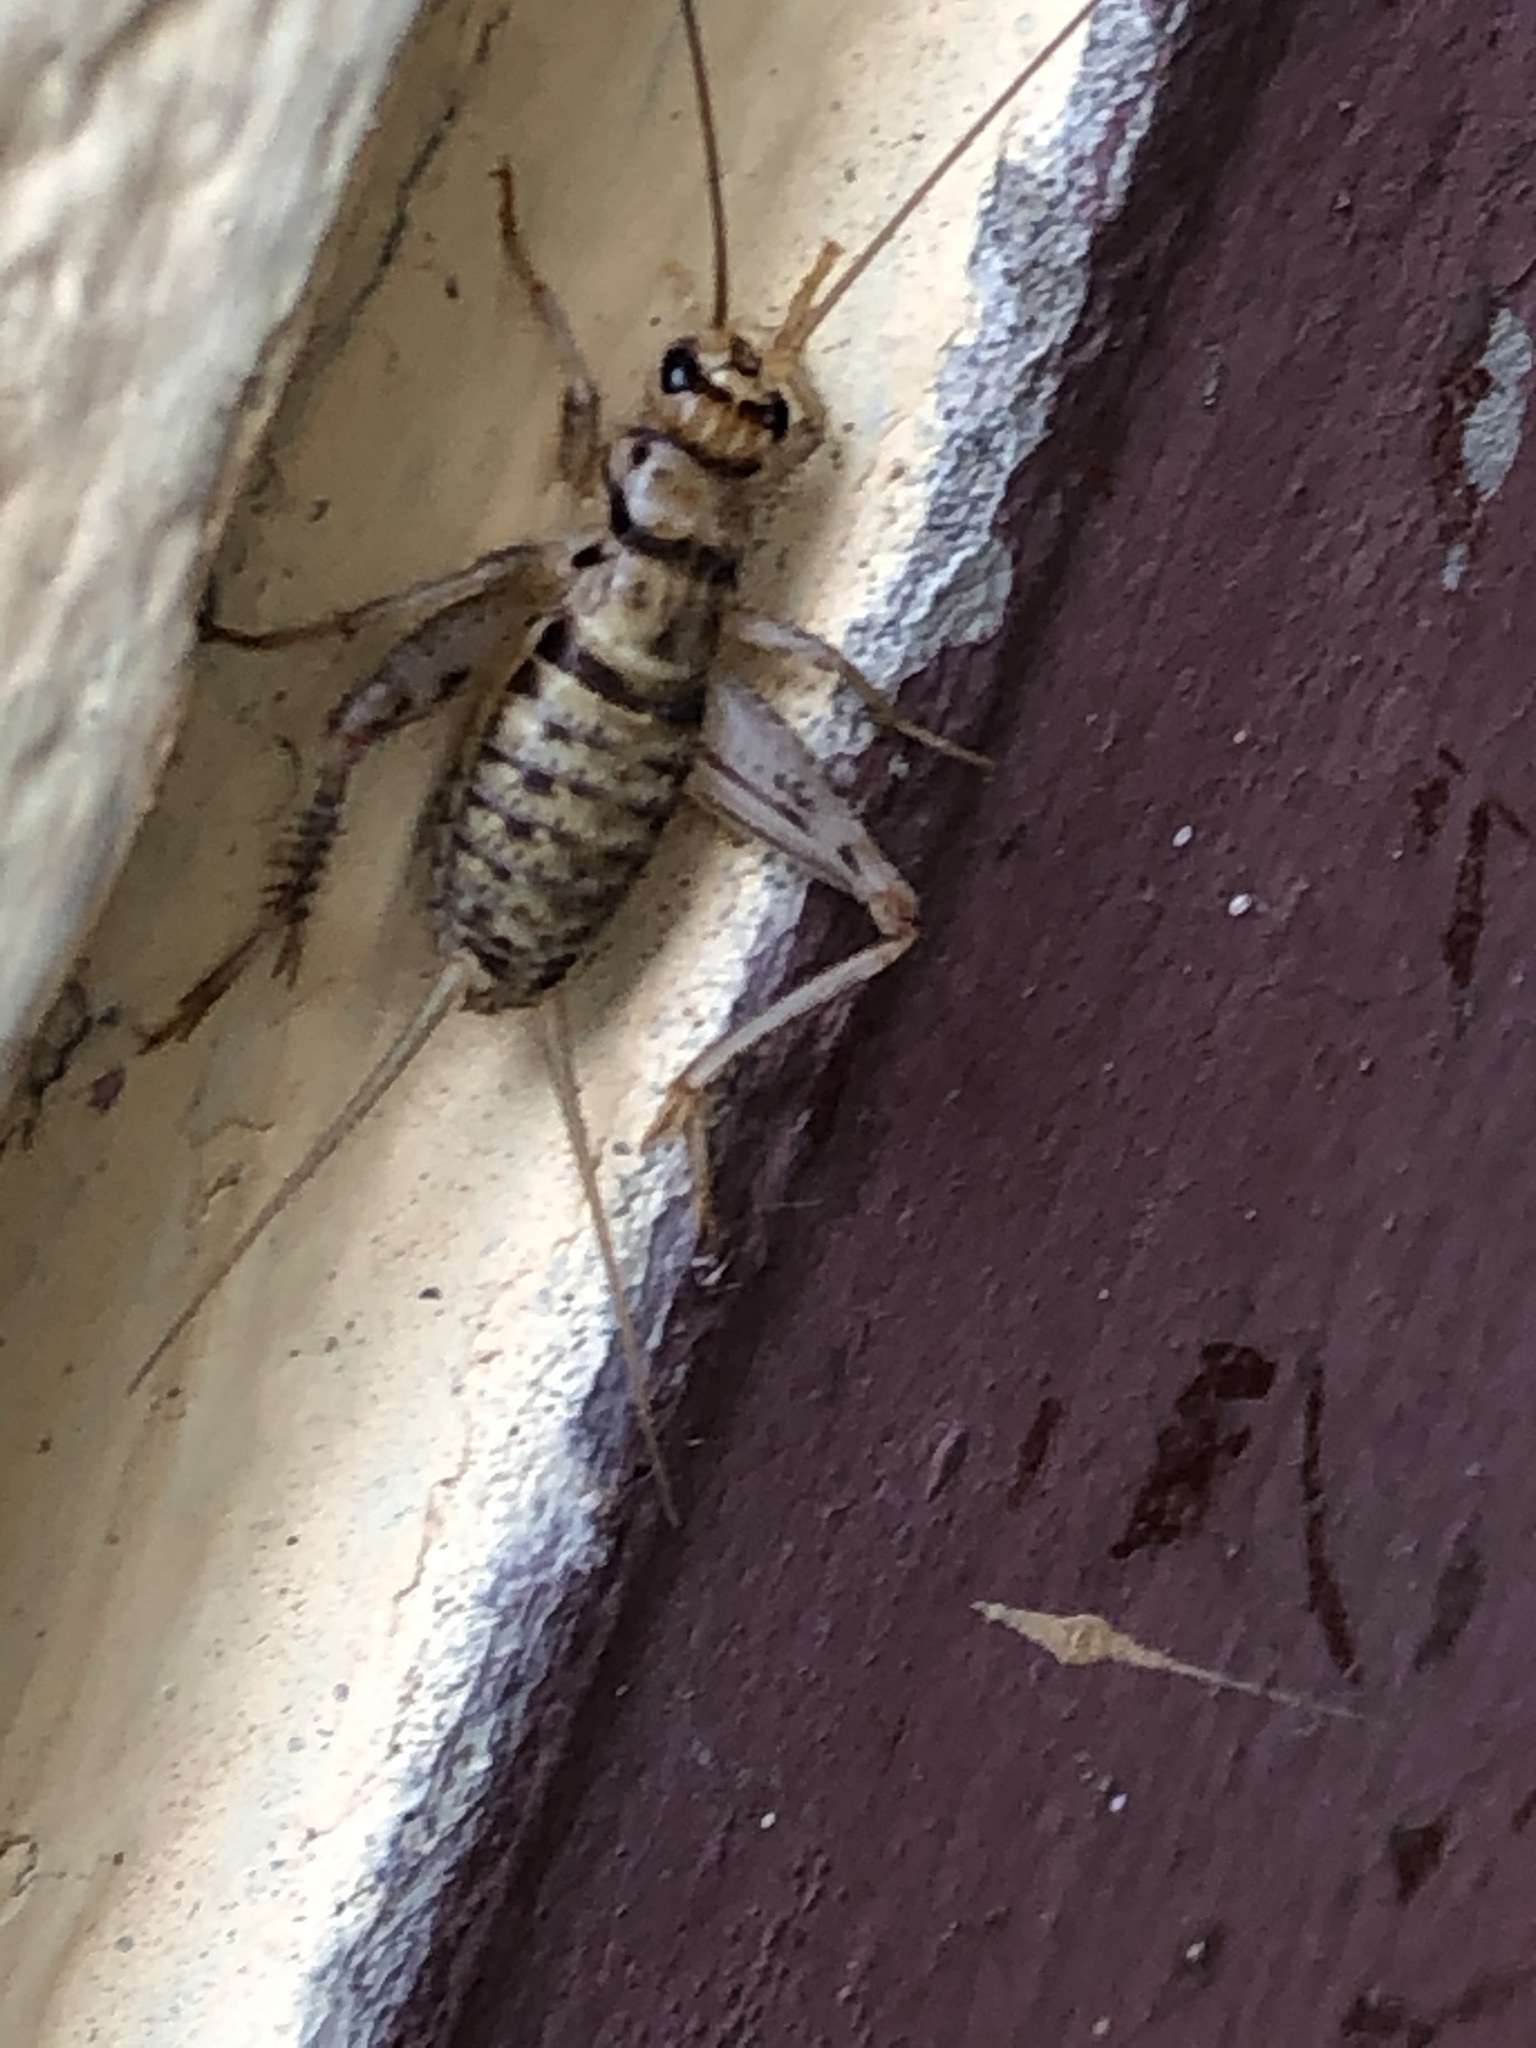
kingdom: Animalia
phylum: Arthropoda
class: Insecta
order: Orthoptera
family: Gryllidae
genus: Gryllodes
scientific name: Gryllodes sigillatus
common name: Tropical house cricket
